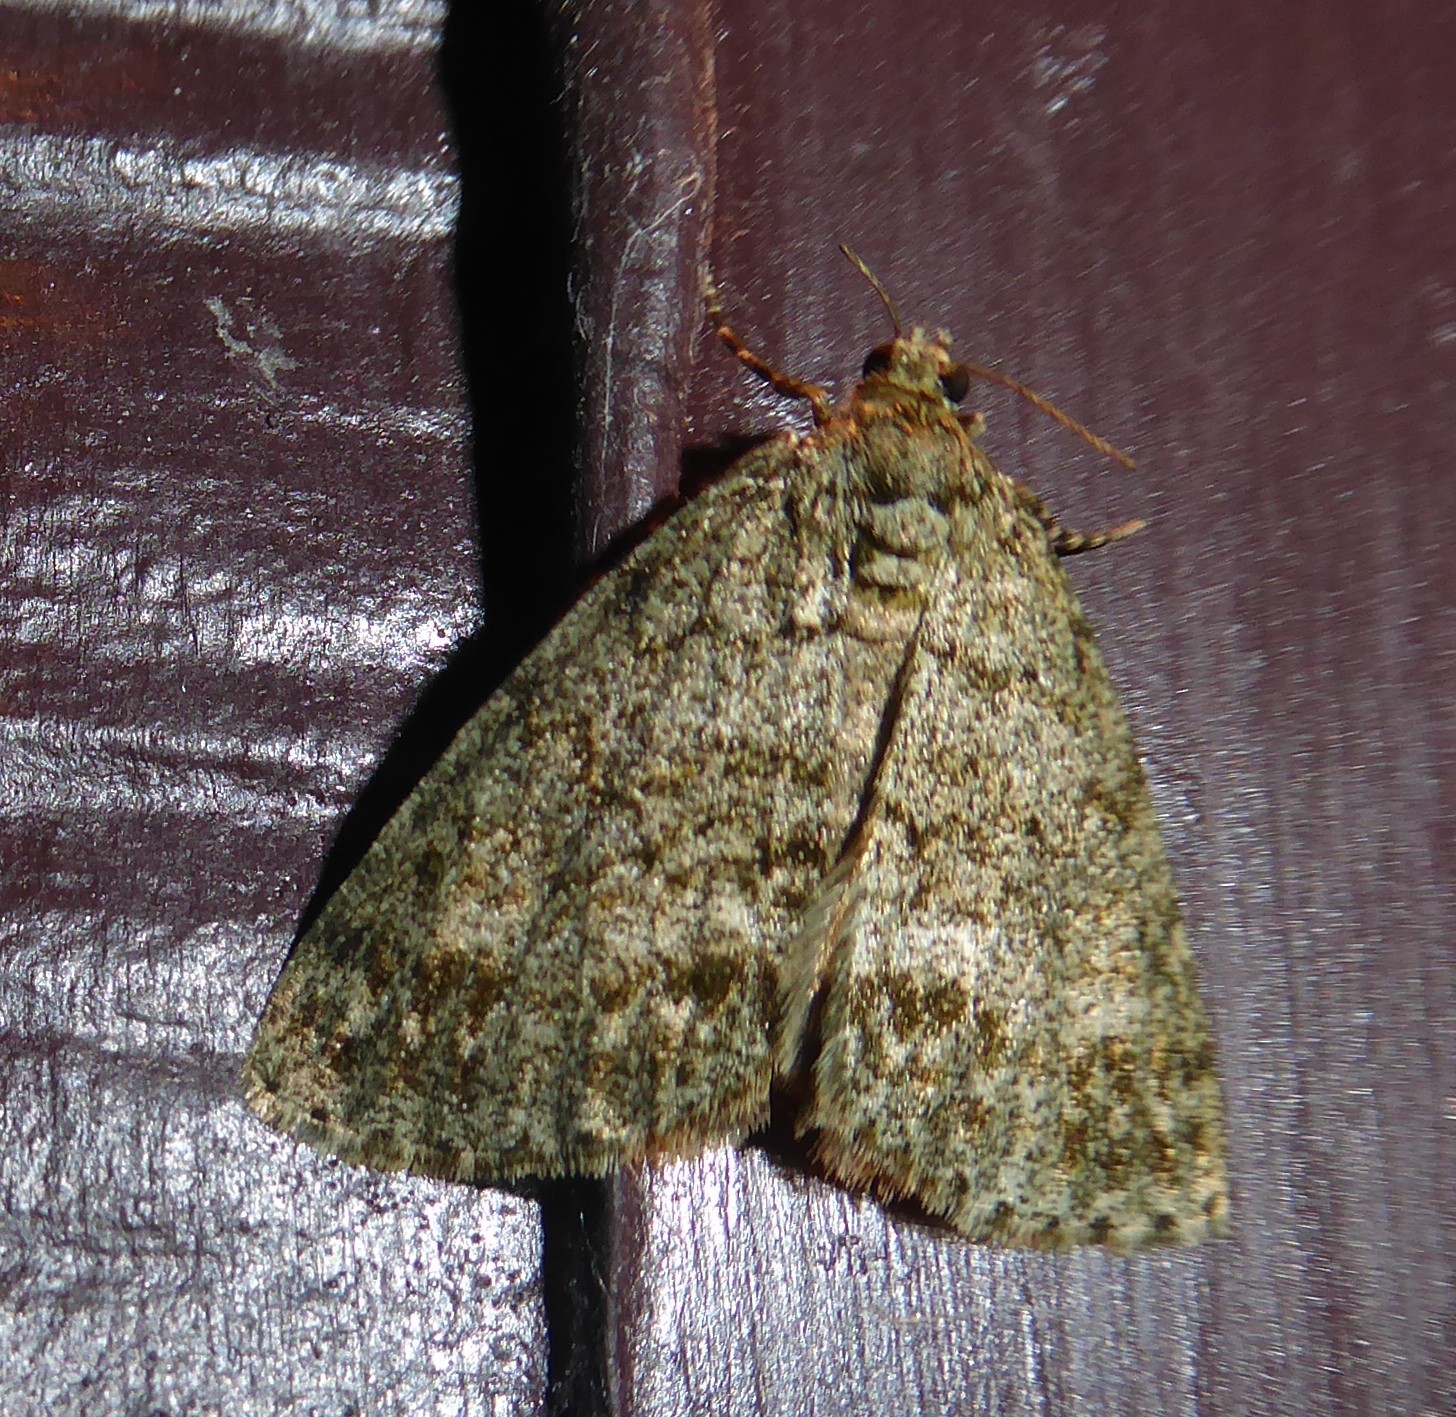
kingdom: Animalia
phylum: Arthropoda
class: Insecta
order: Lepidoptera
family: Geometridae
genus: Pseudocoremia
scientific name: Pseudocoremia indistincta
